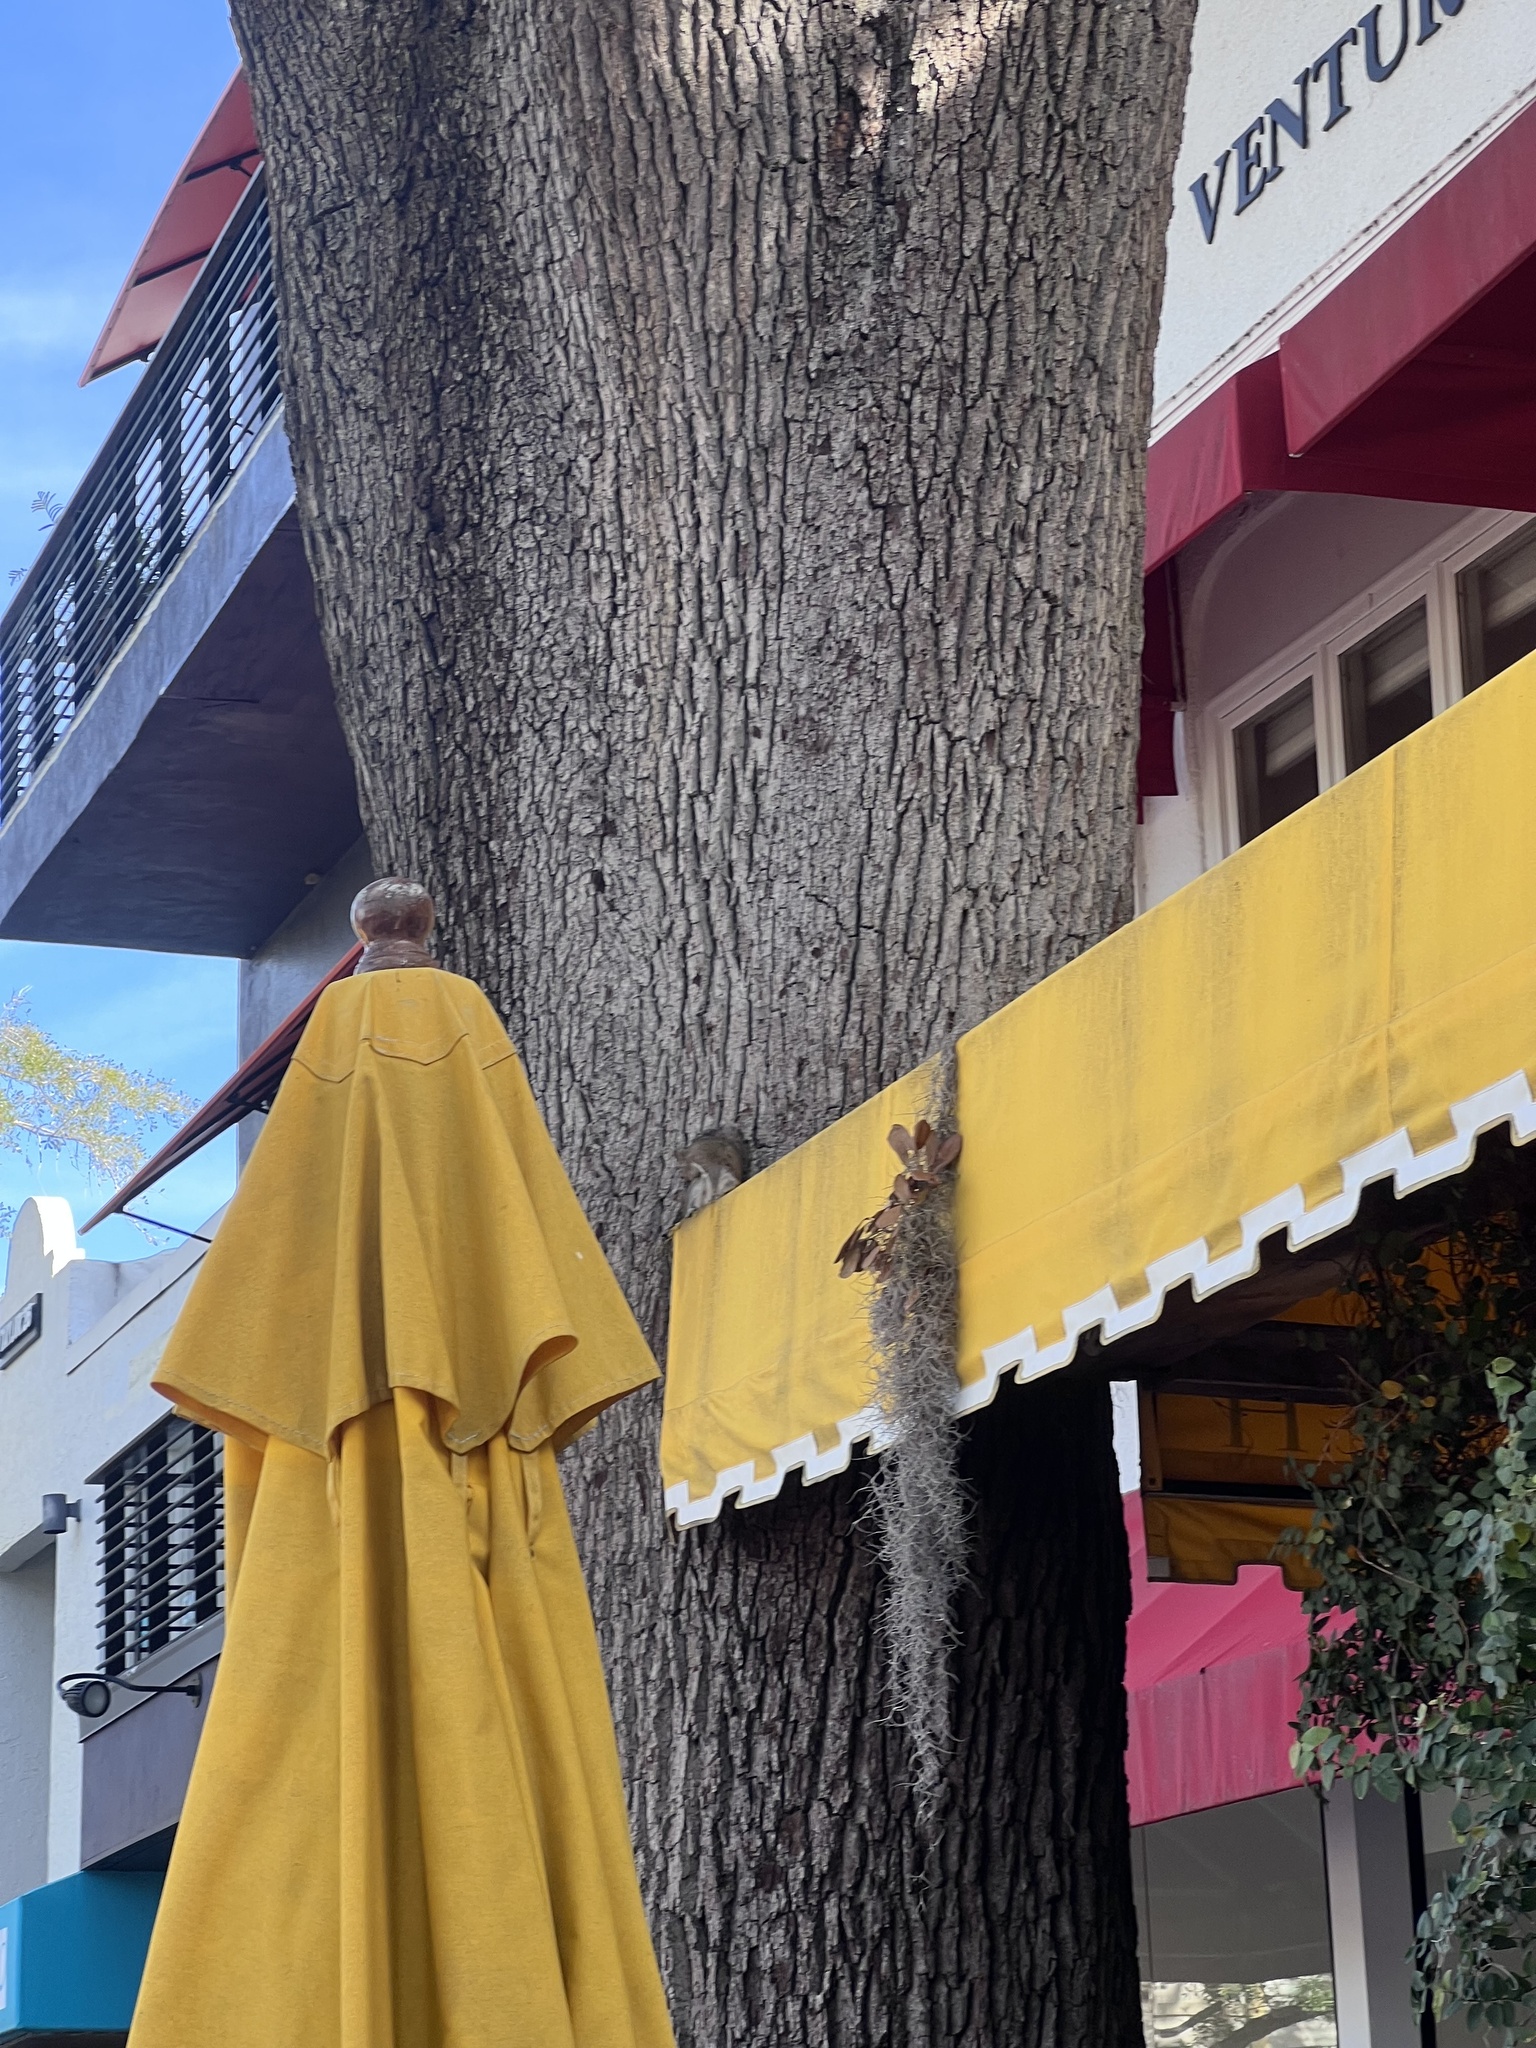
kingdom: Animalia
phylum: Chordata
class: Mammalia
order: Rodentia
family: Sciuridae
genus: Sciurus
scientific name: Sciurus carolinensis
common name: Eastern gray squirrel
